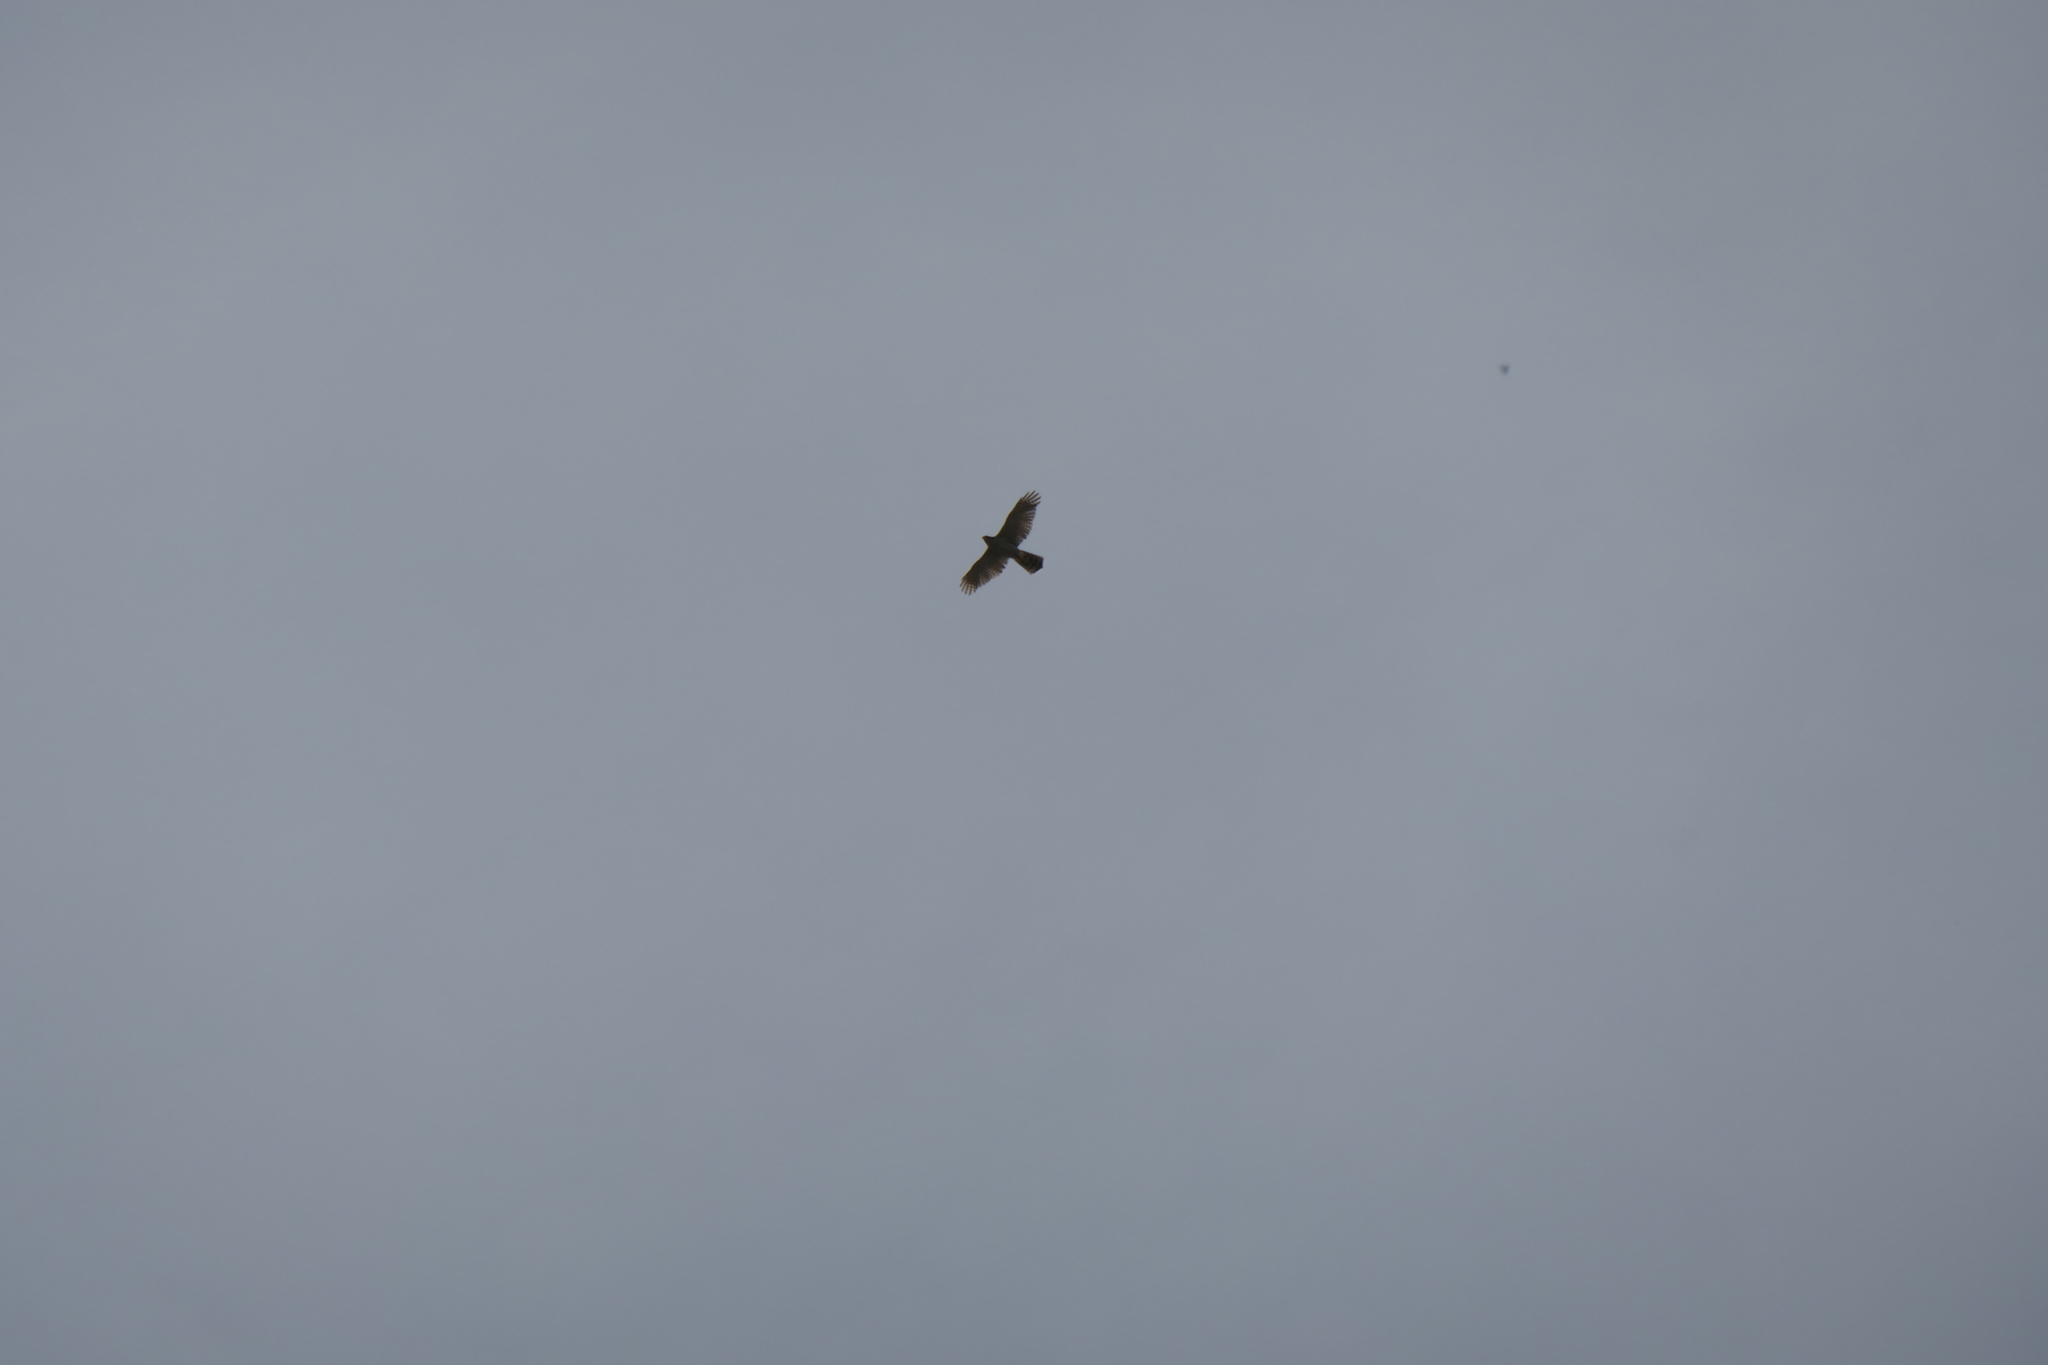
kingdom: Animalia
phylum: Chordata
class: Aves
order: Accipitriformes
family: Accipitridae
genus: Accipiter
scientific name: Accipiter gentilis
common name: Northern goshawk
